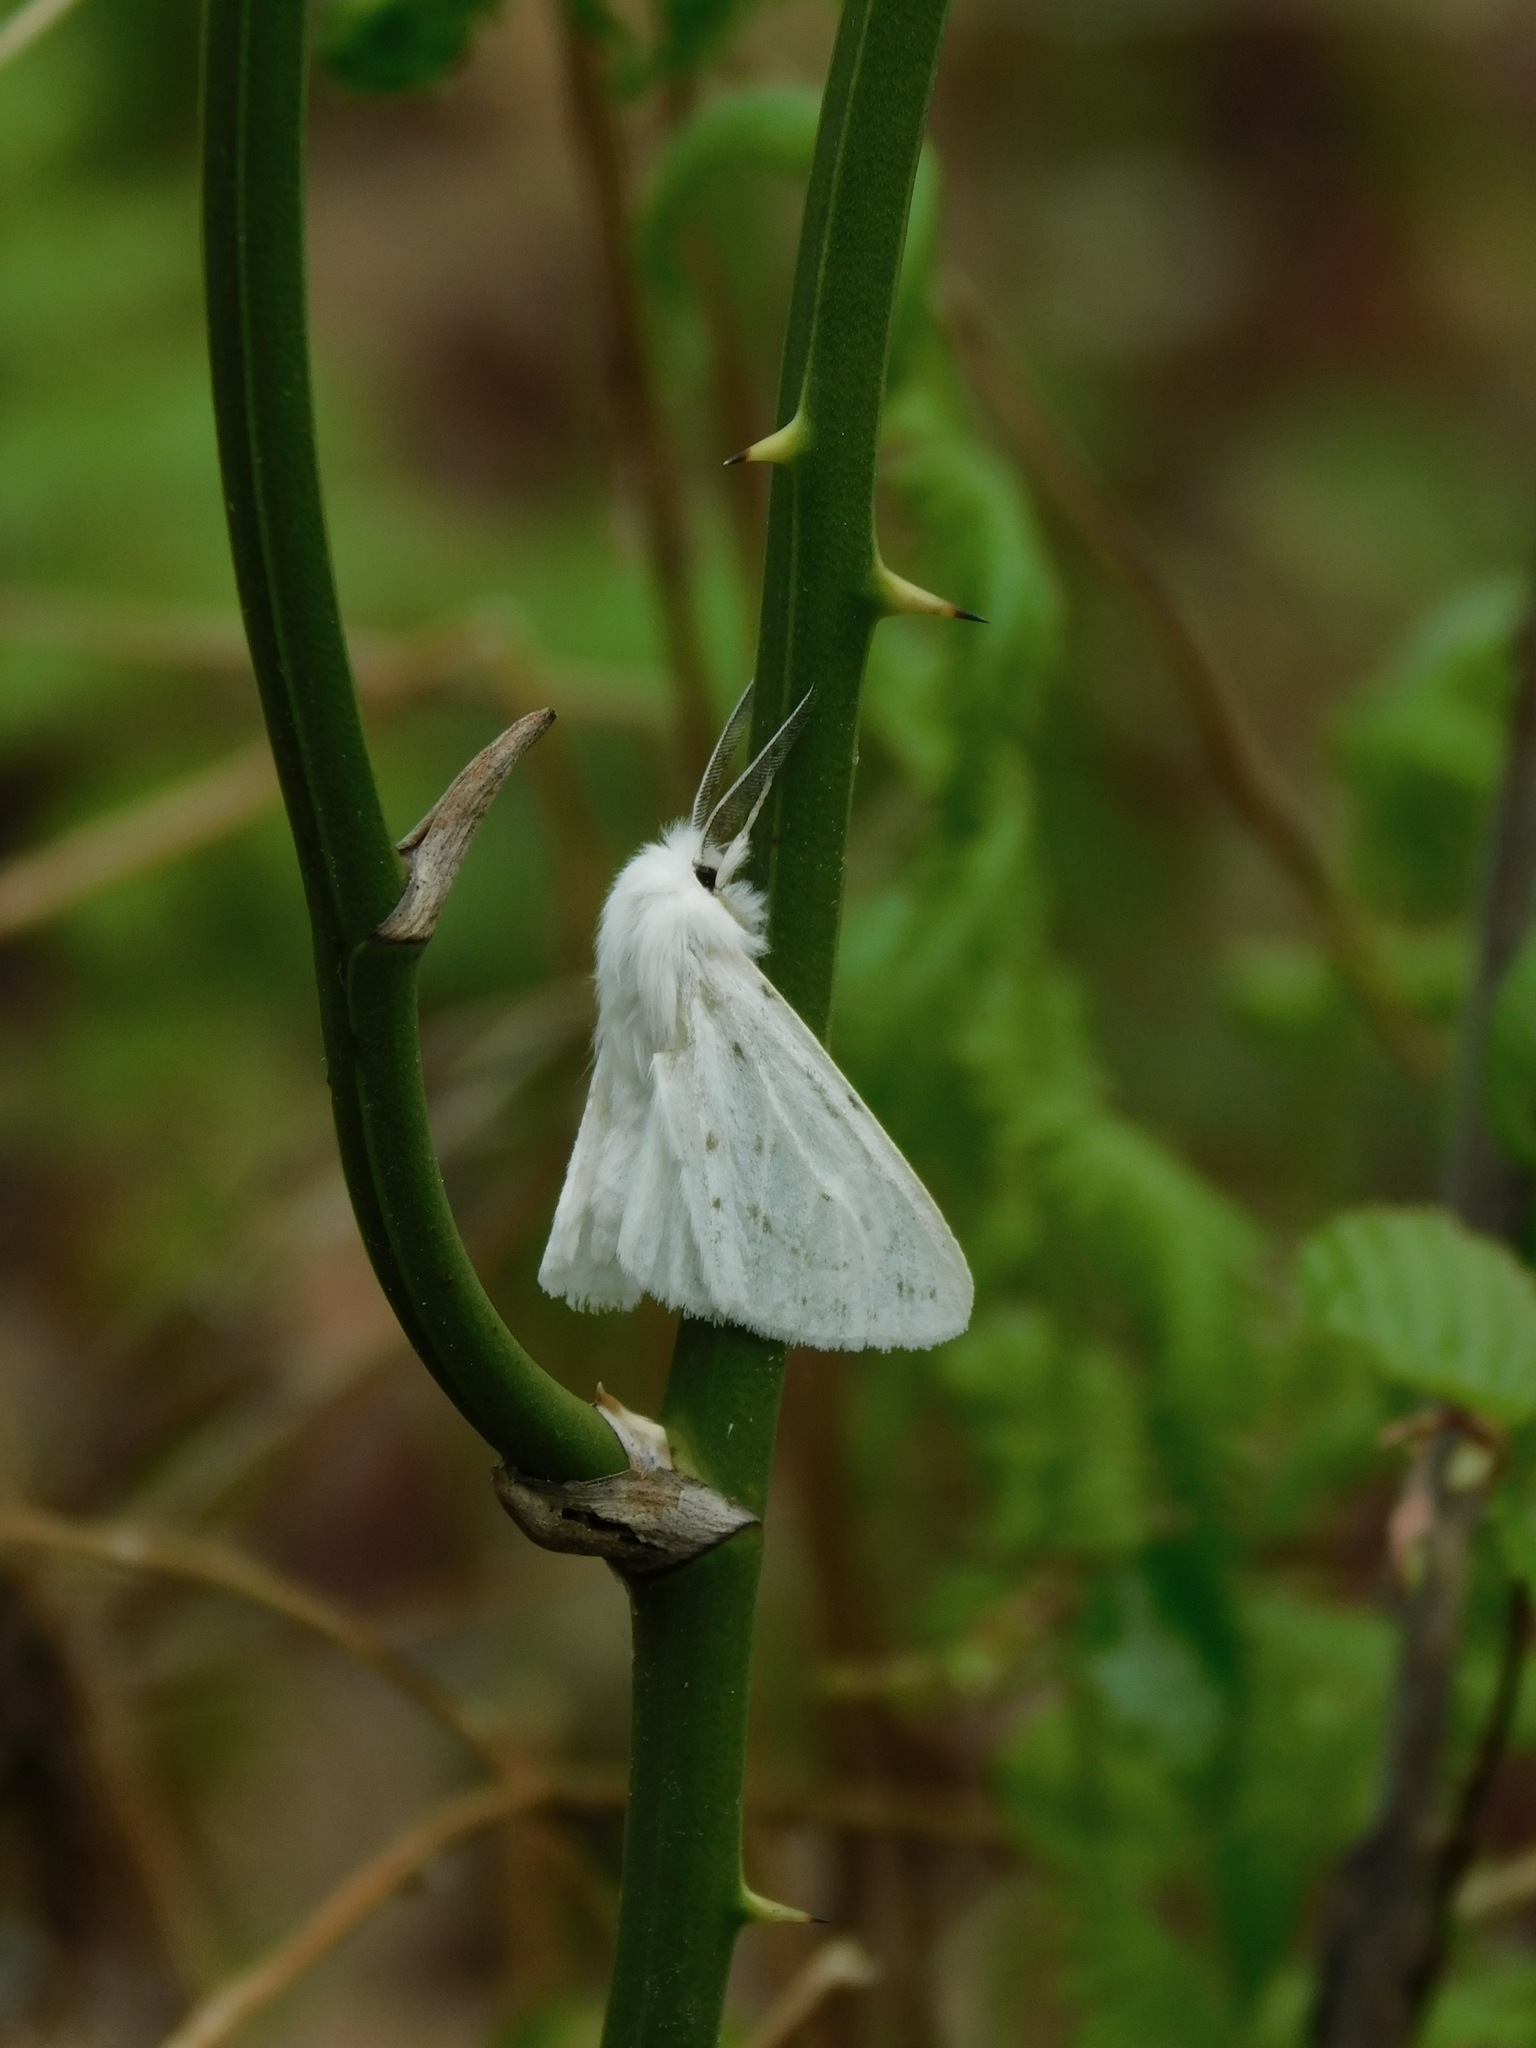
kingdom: Animalia
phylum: Arthropoda
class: Insecta
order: Lepidoptera
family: Erebidae
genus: Spilosoma
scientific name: Spilosoma congrua
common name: Agreeable tiger moth
